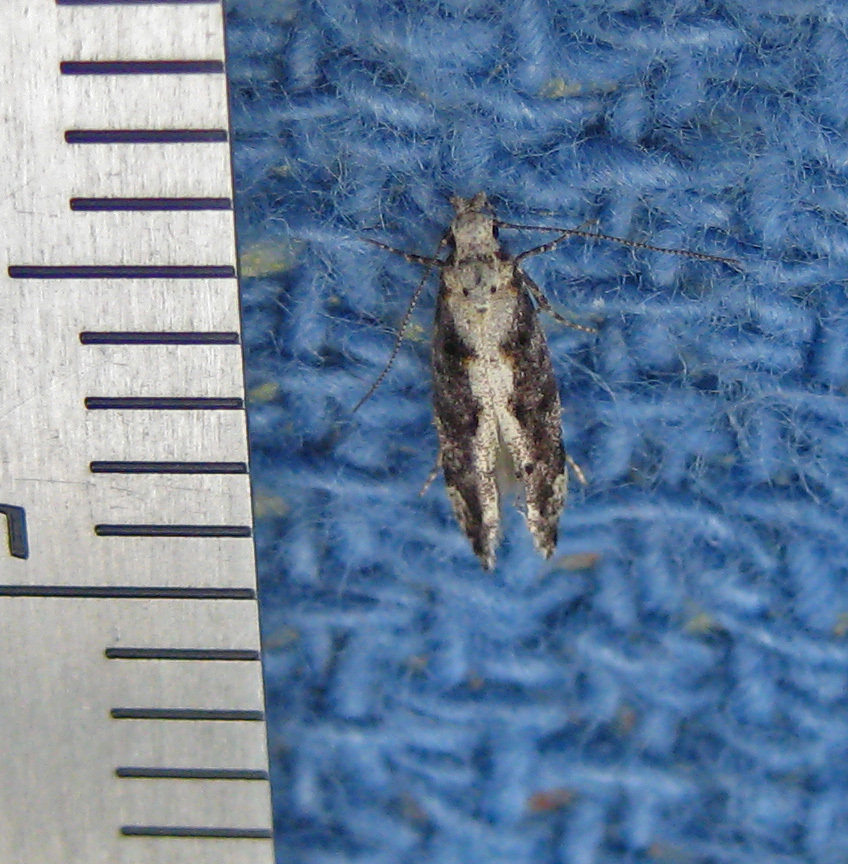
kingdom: Animalia
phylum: Arthropoda
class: Insecta
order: Lepidoptera
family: Gelechiidae
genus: Coleotechnites
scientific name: Coleotechnites florae
